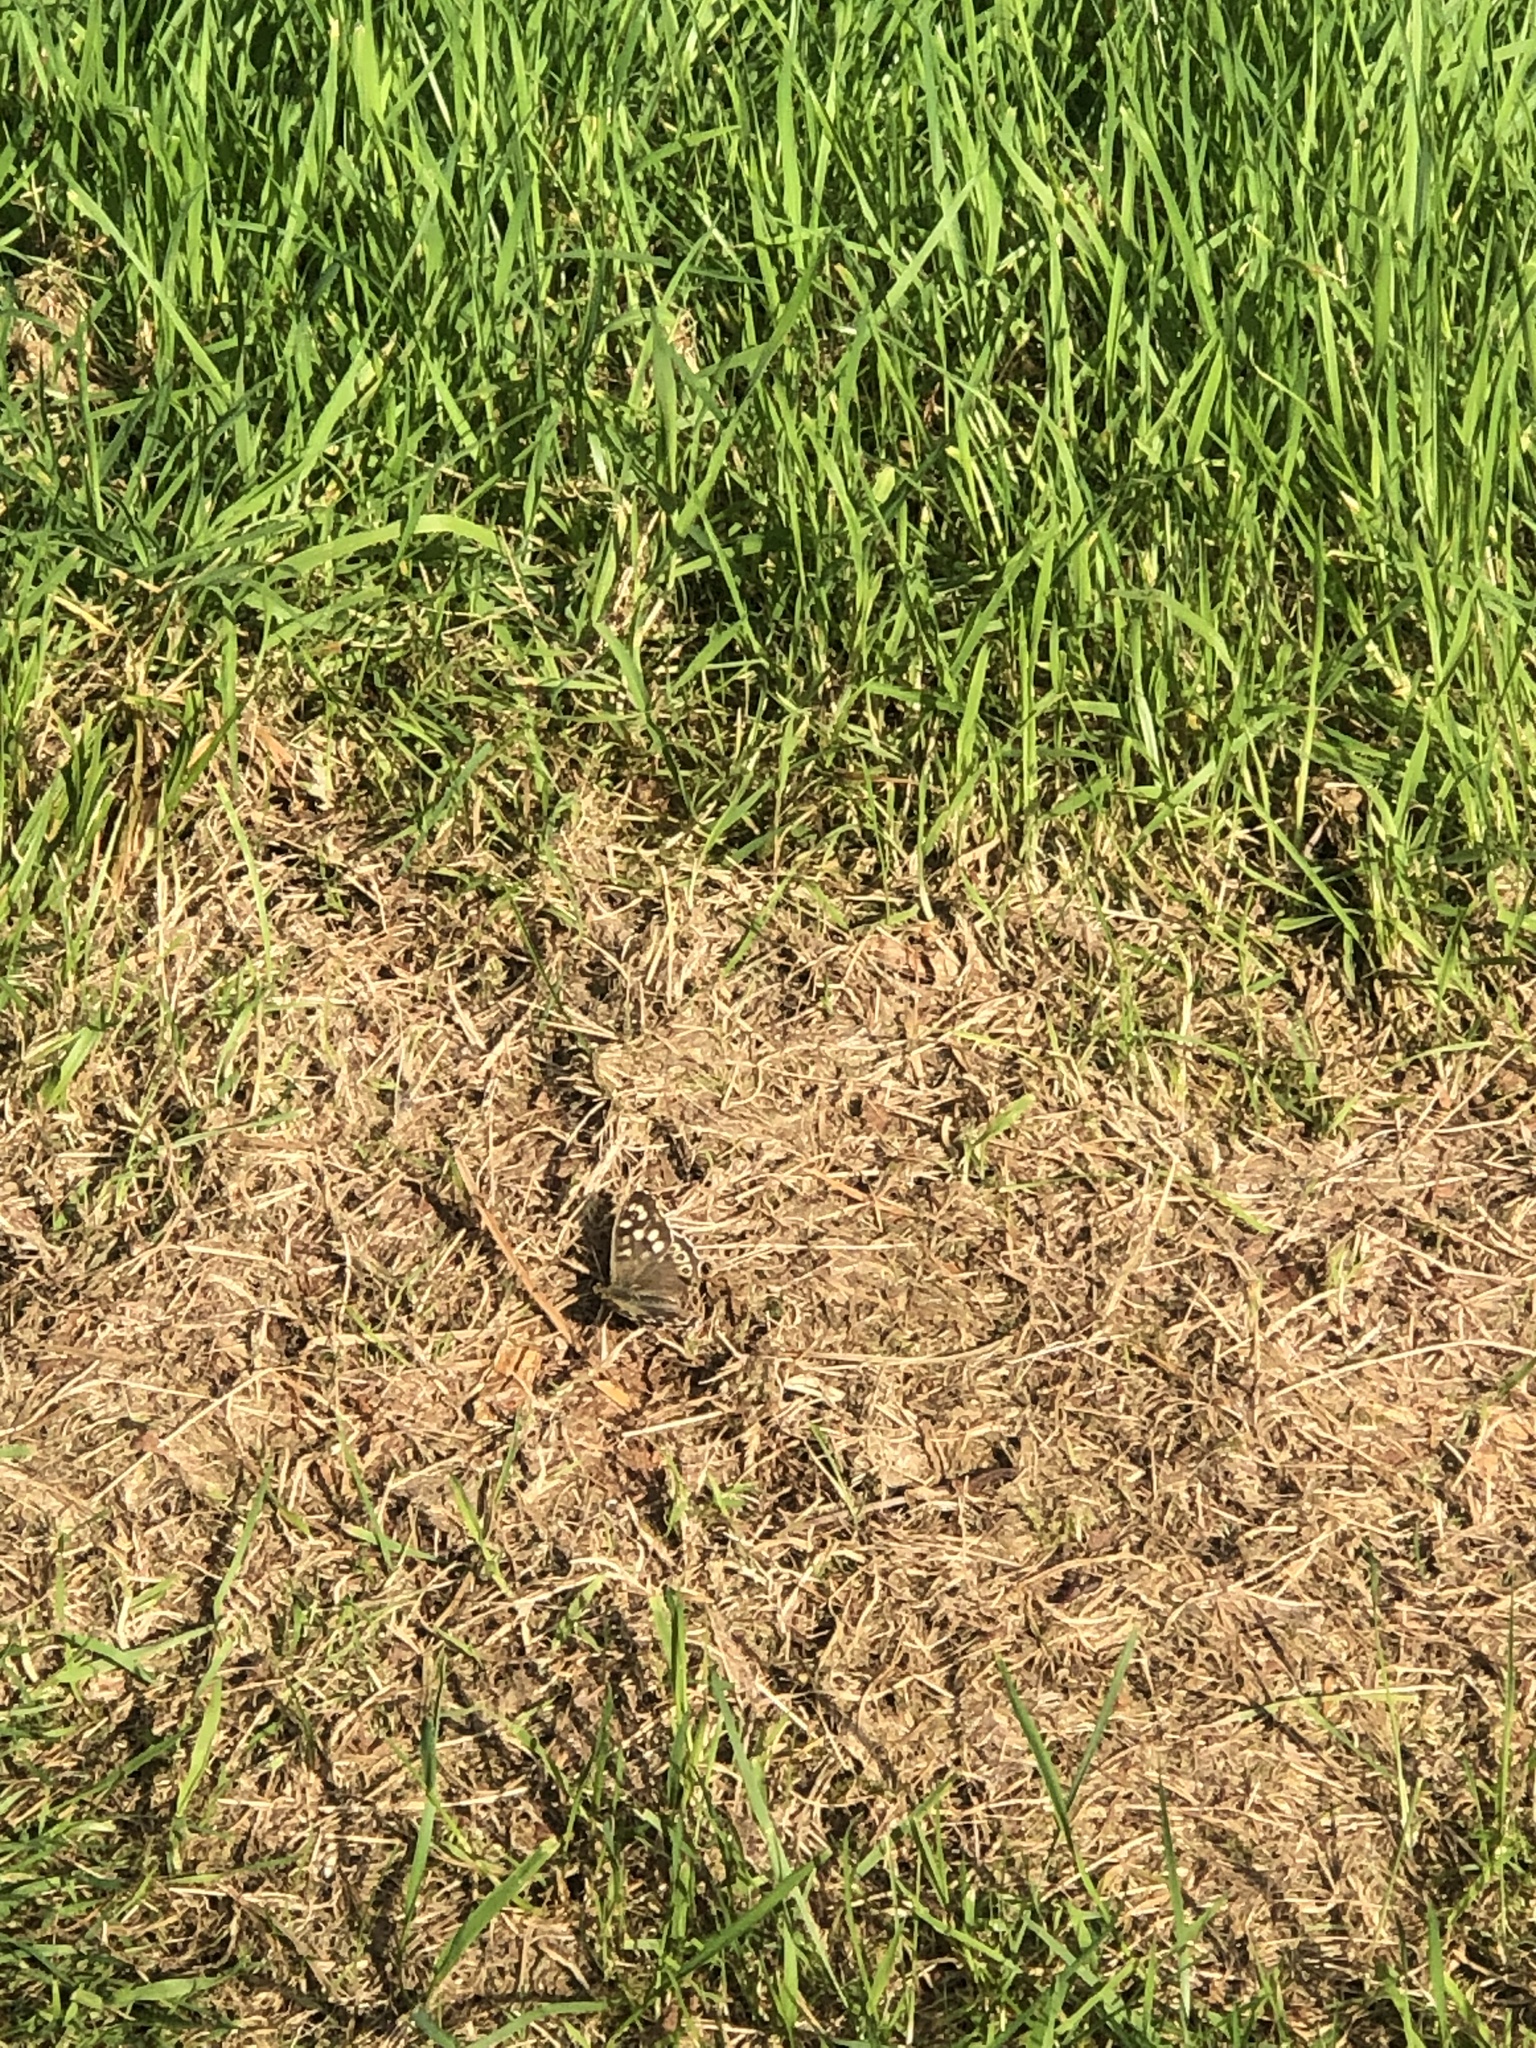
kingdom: Animalia
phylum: Arthropoda
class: Insecta
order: Lepidoptera
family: Nymphalidae
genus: Pararge
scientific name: Pararge aegeria
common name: Speckled wood
